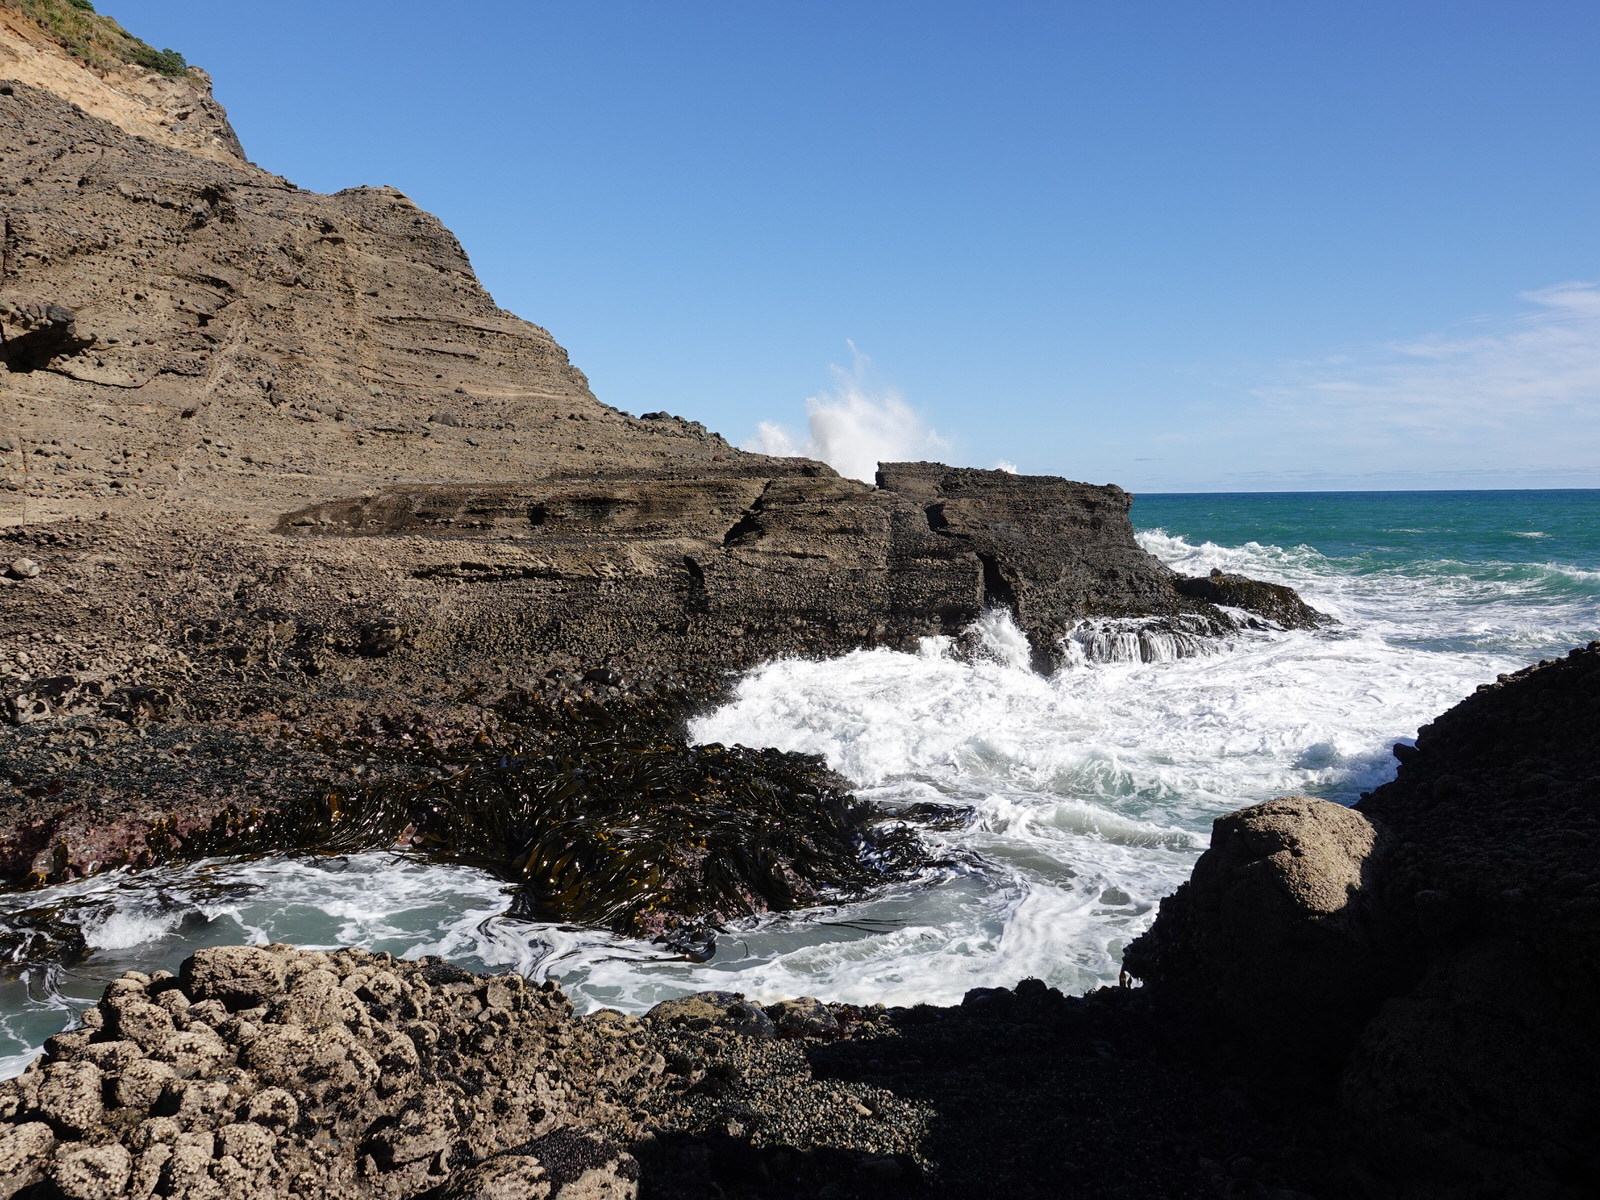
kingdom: Chromista
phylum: Ochrophyta
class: Phaeophyceae
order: Fucales
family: Durvillaeaceae
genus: Durvillaea
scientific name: Durvillaea antarctica
